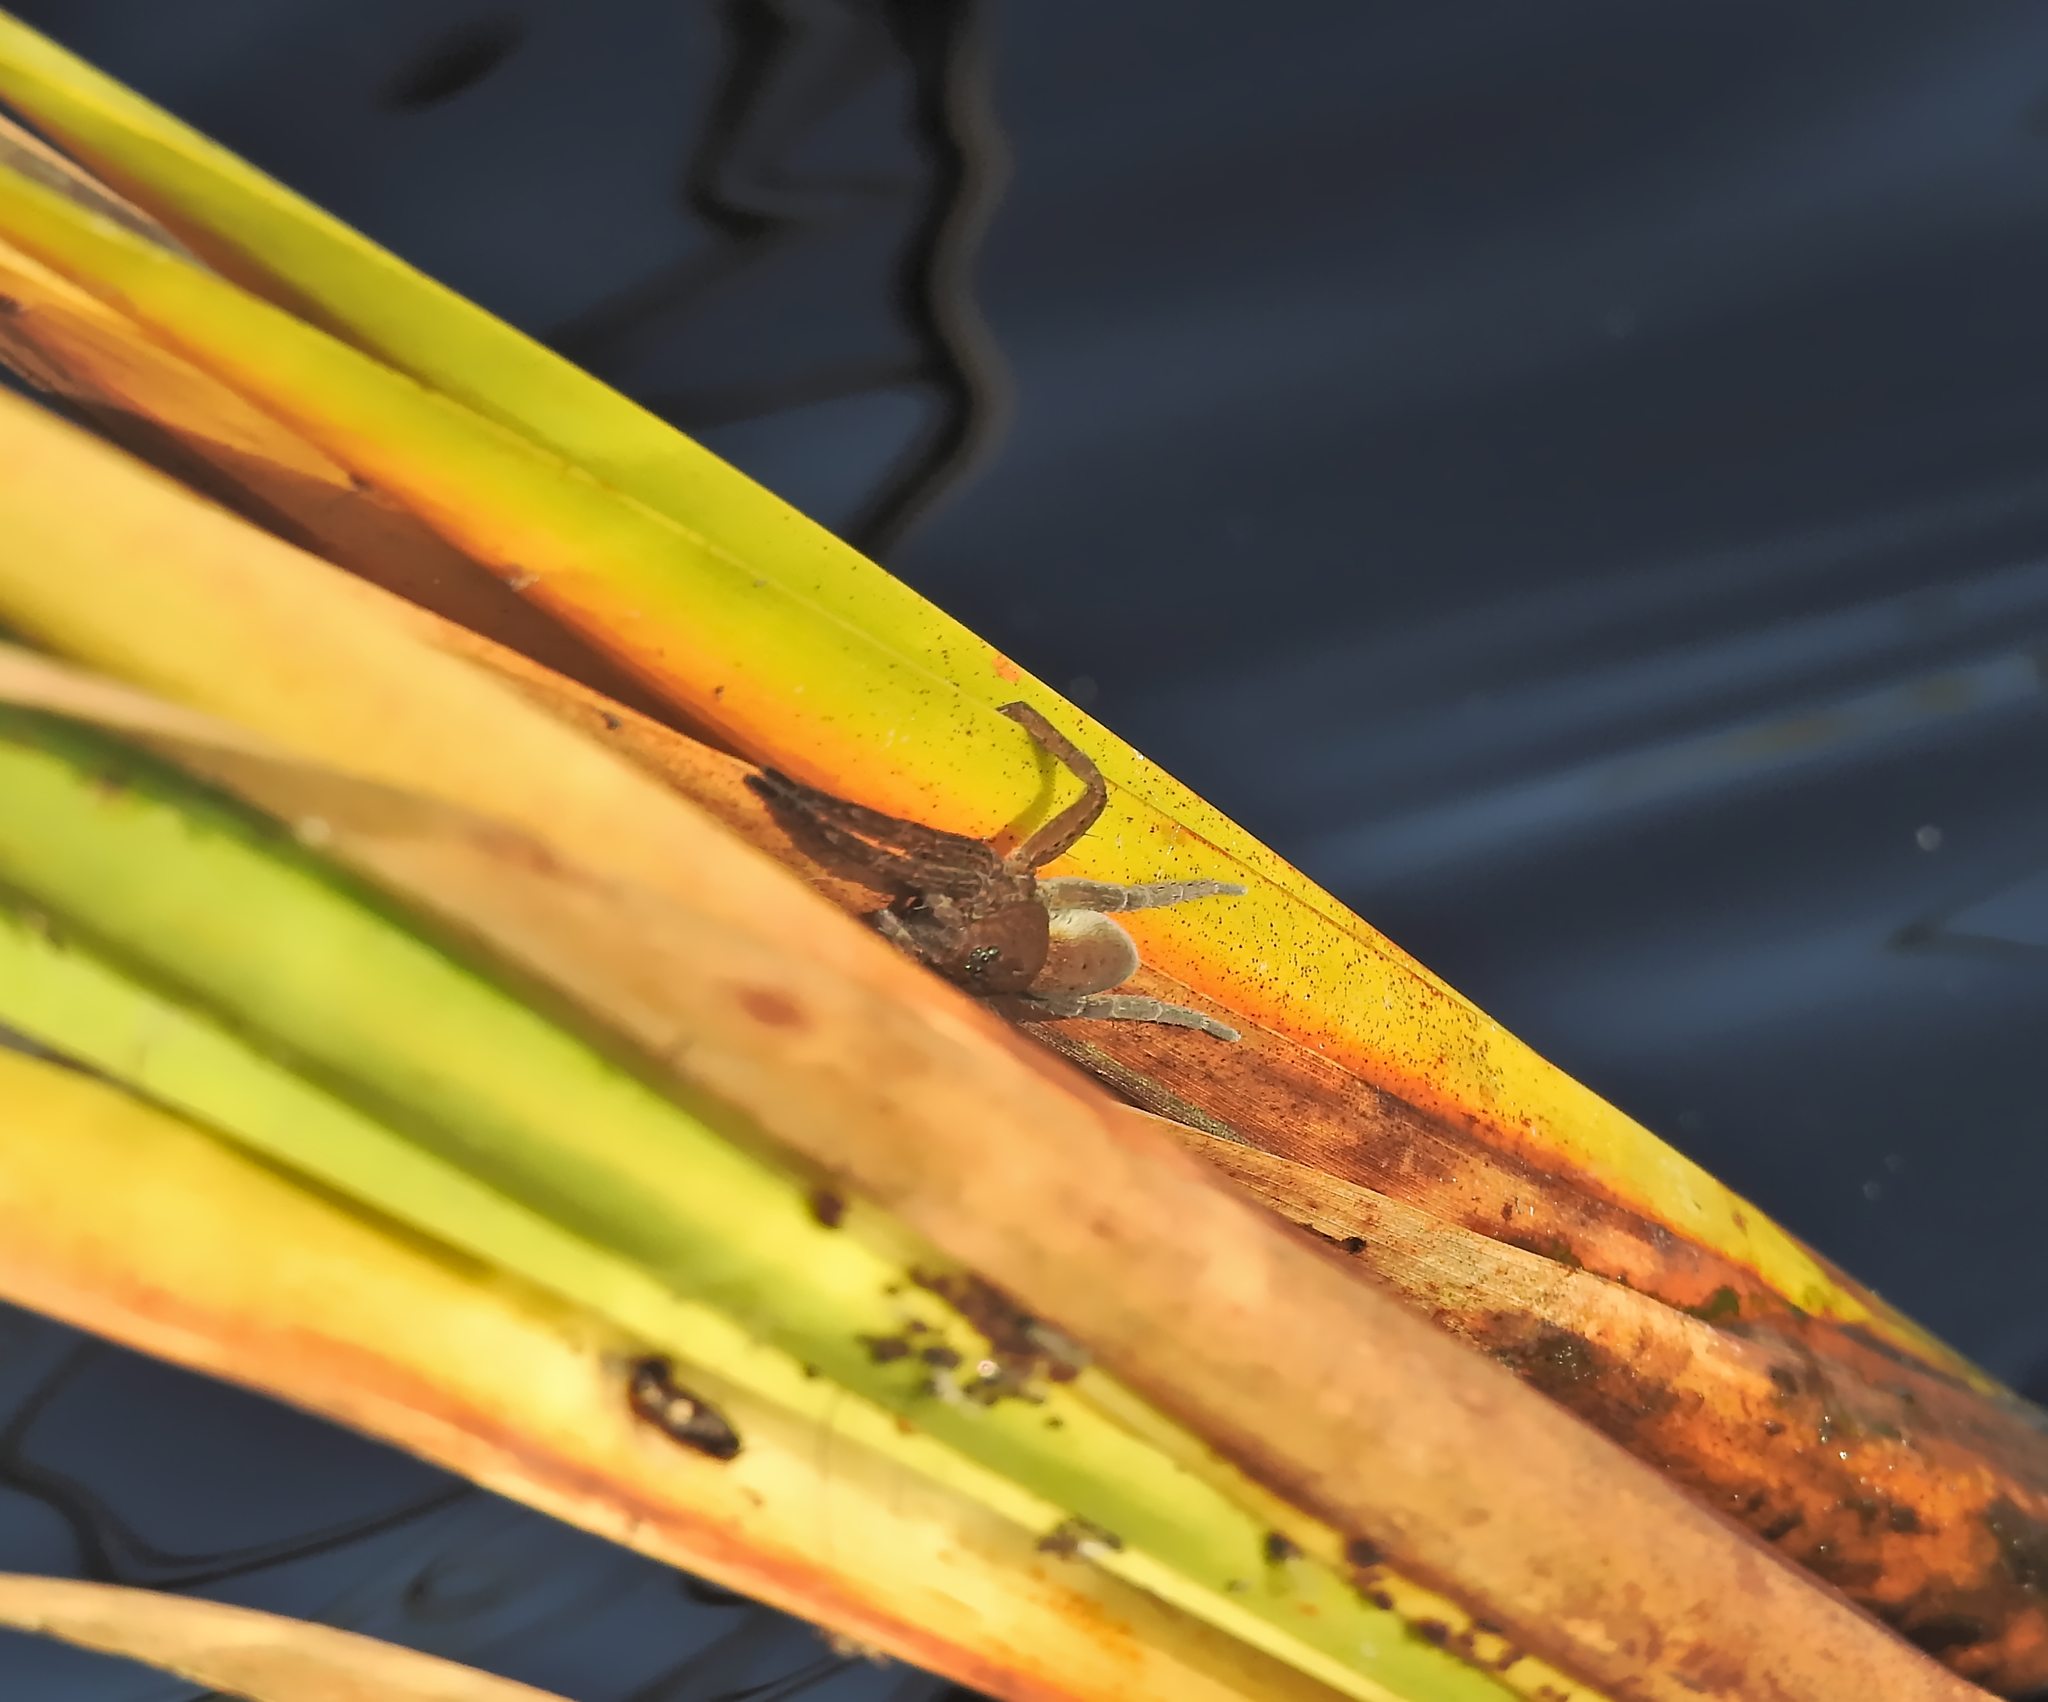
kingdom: Animalia
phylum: Arthropoda
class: Arachnida
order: Araneae
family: Pisauridae
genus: Dolomedes
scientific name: Dolomedes
